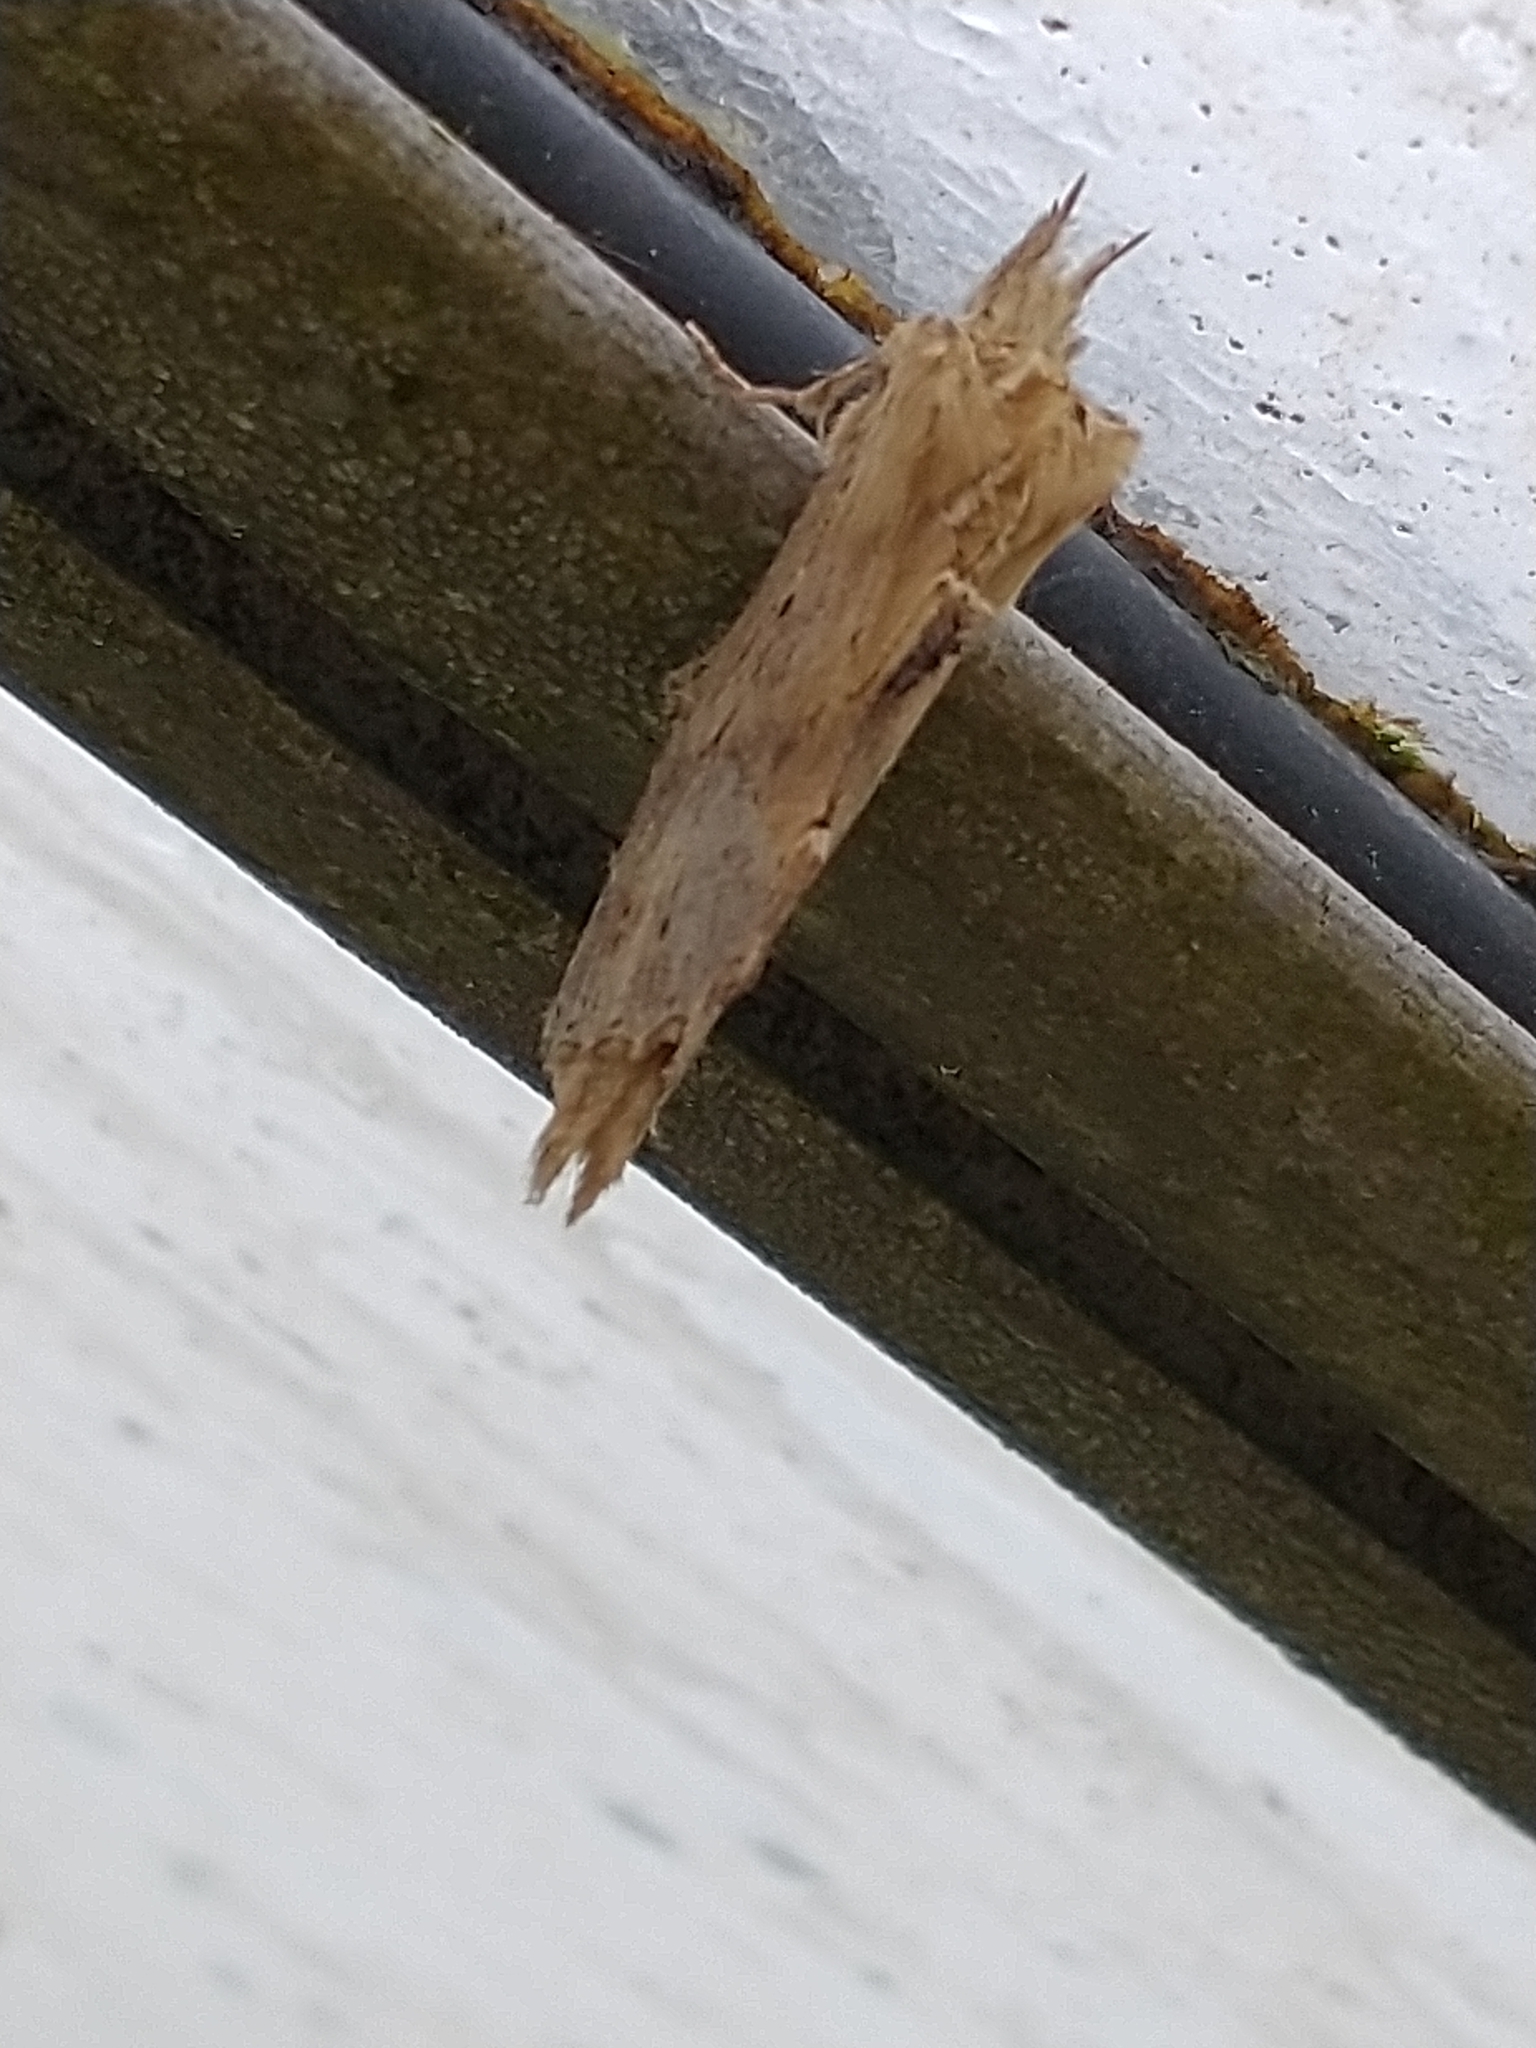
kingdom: Animalia
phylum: Arthropoda
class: Insecta
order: Lepidoptera
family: Notodontidae
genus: Pterostoma
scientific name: Pterostoma palpina
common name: Pale prominent
